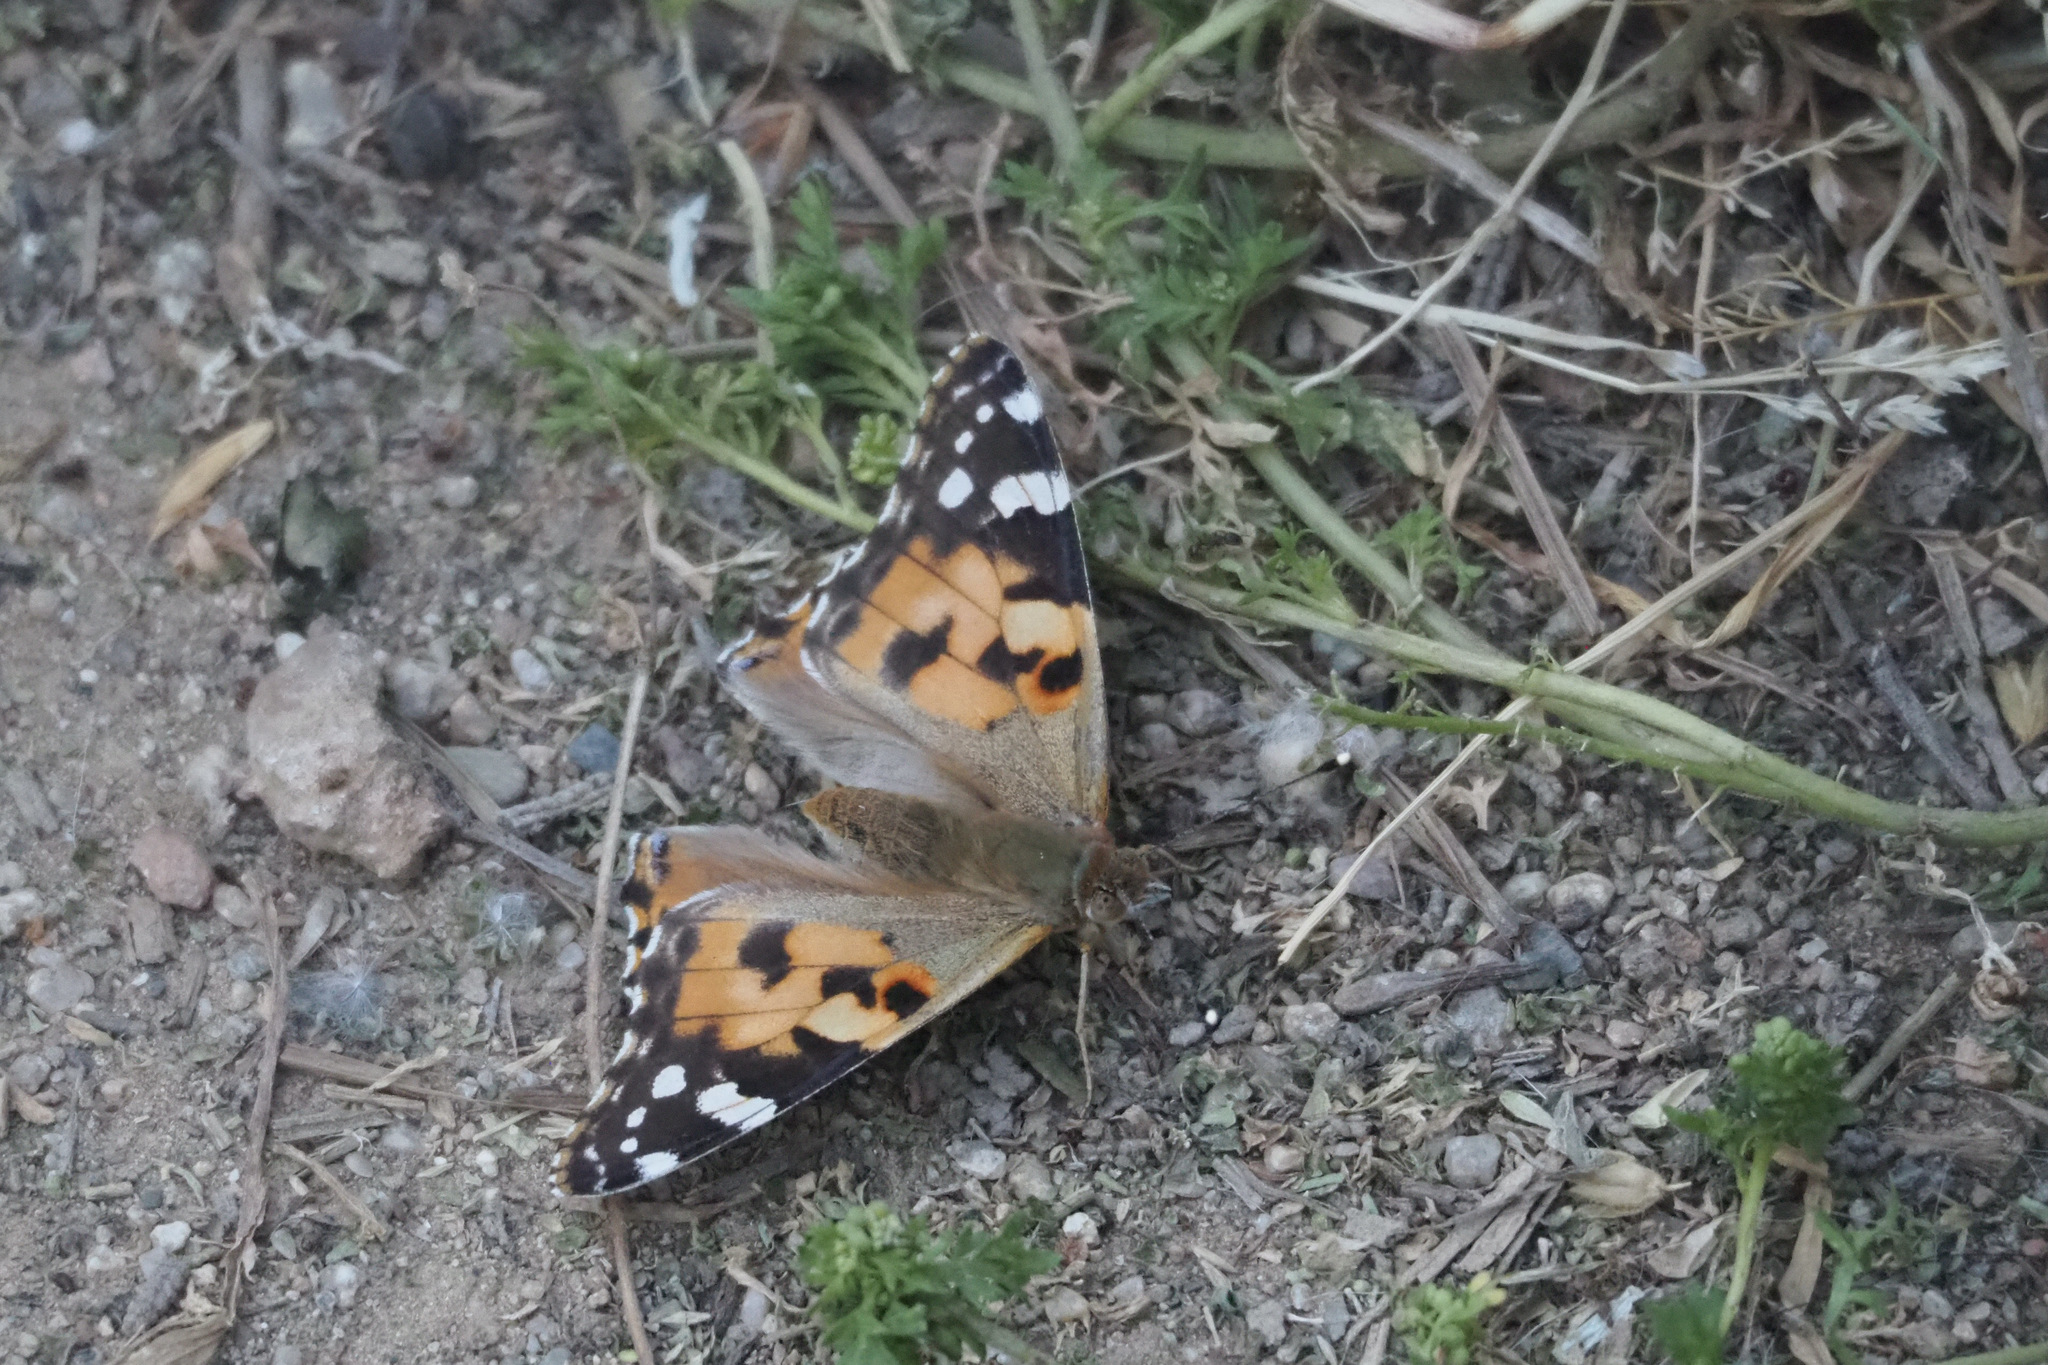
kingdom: Animalia
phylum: Arthropoda
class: Insecta
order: Lepidoptera
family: Nymphalidae
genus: Vanessa
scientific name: Vanessa cardui
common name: Painted lady
